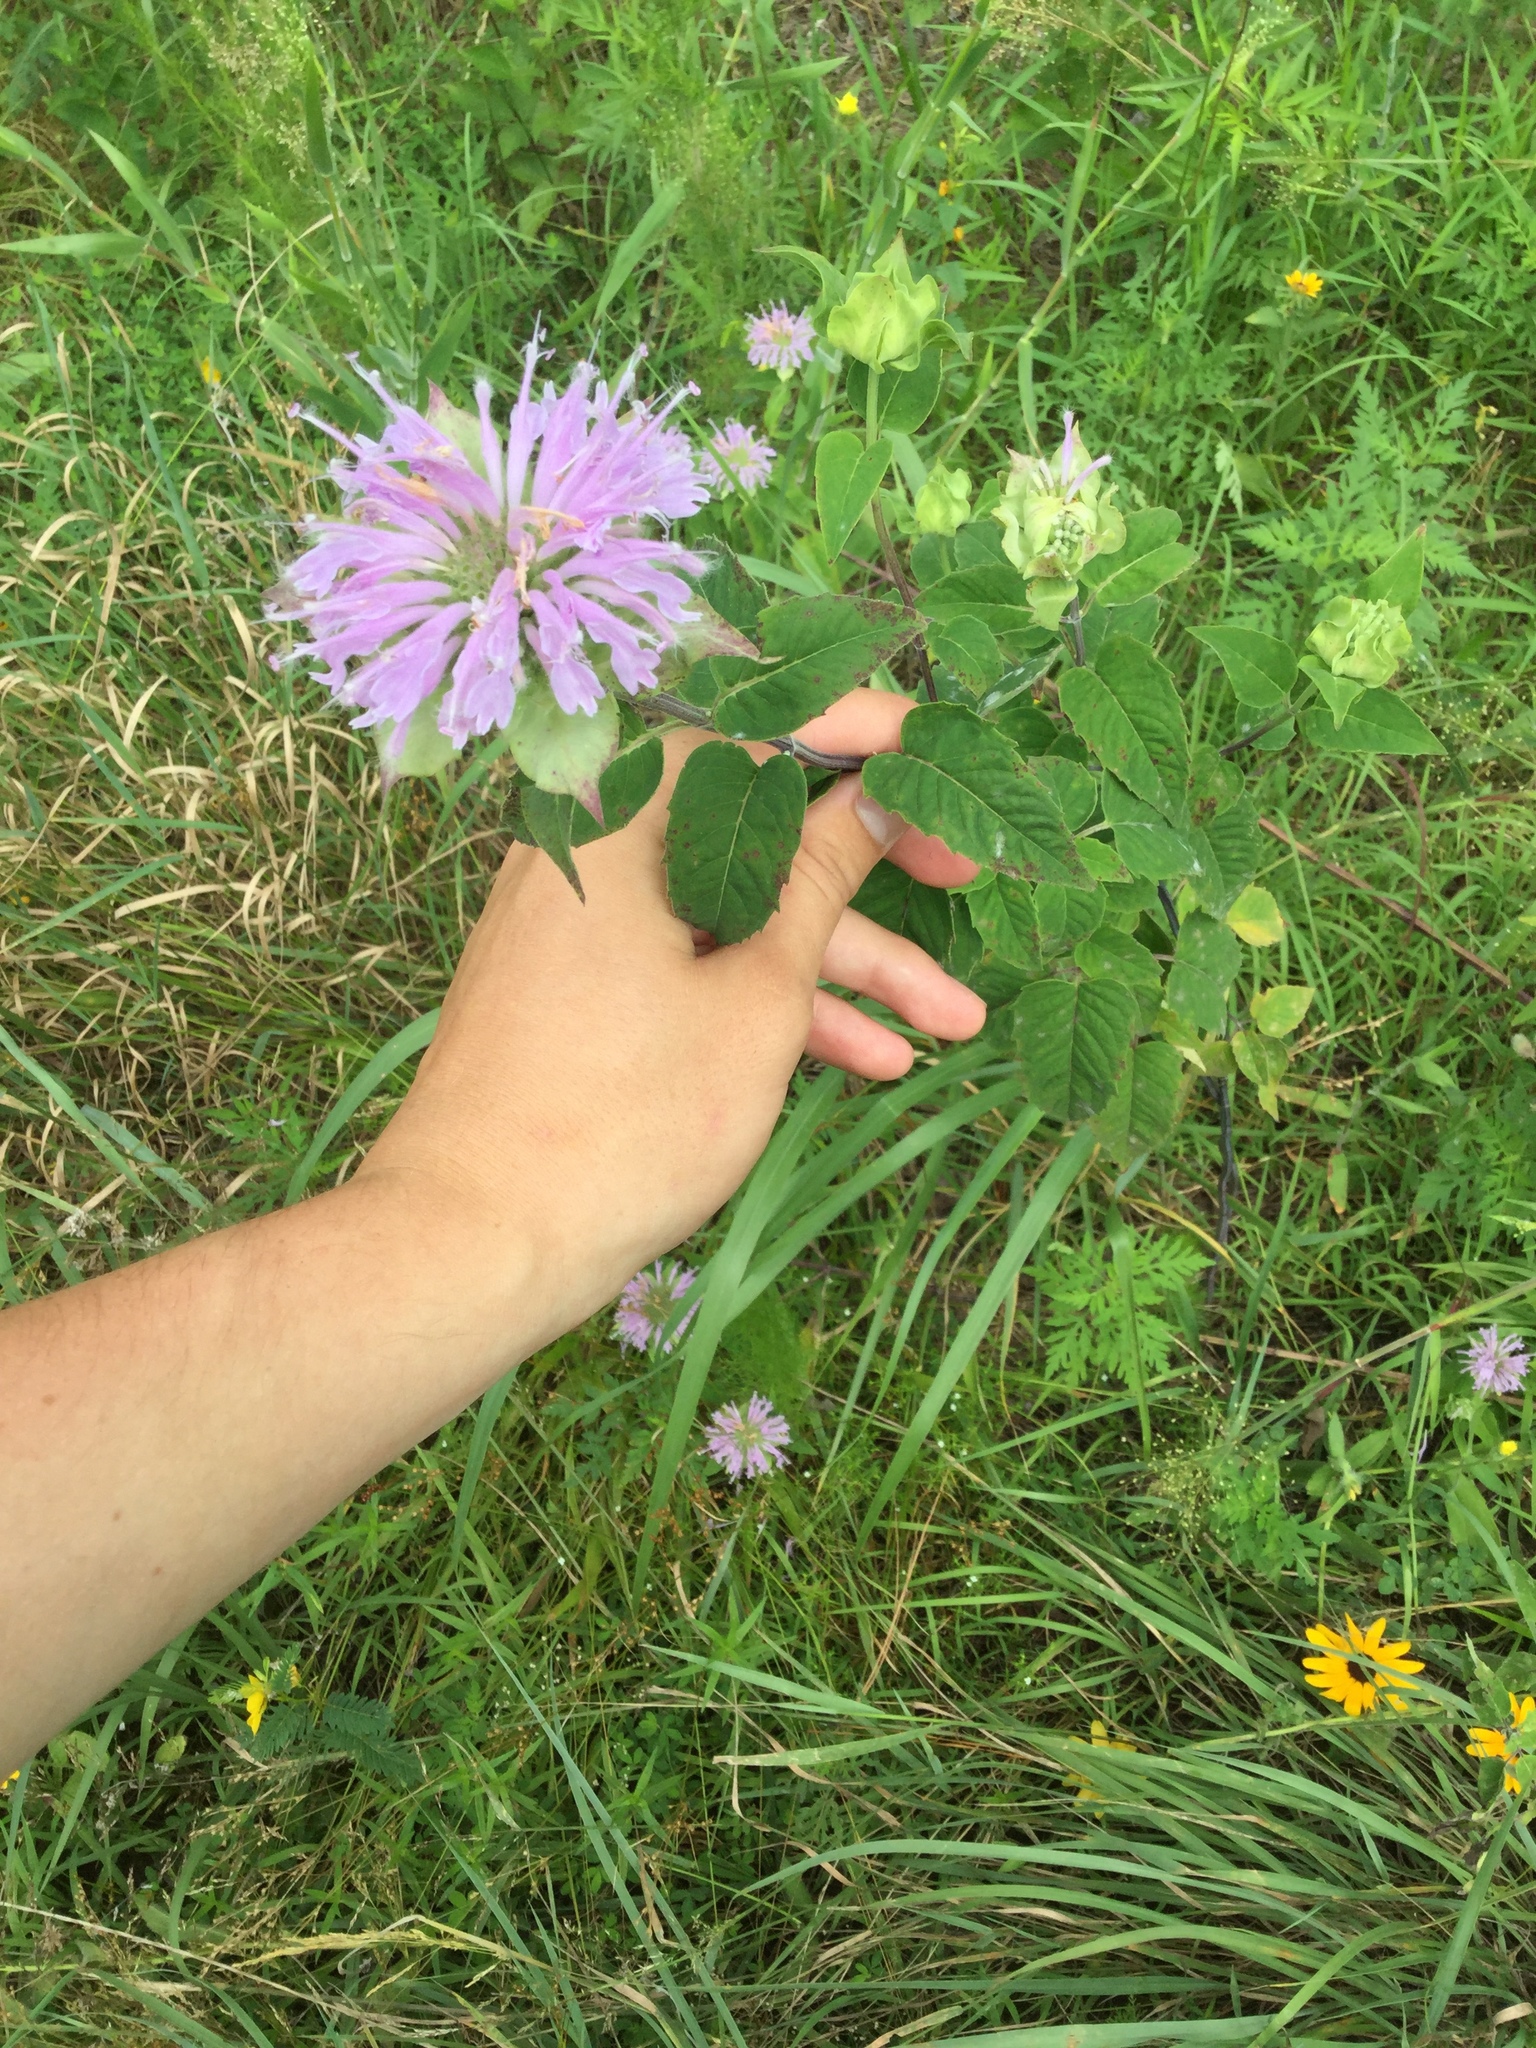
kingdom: Plantae
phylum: Tracheophyta
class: Magnoliopsida
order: Lamiales
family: Lamiaceae
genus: Monarda
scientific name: Monarda fistulosa
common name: Purple beebalm
